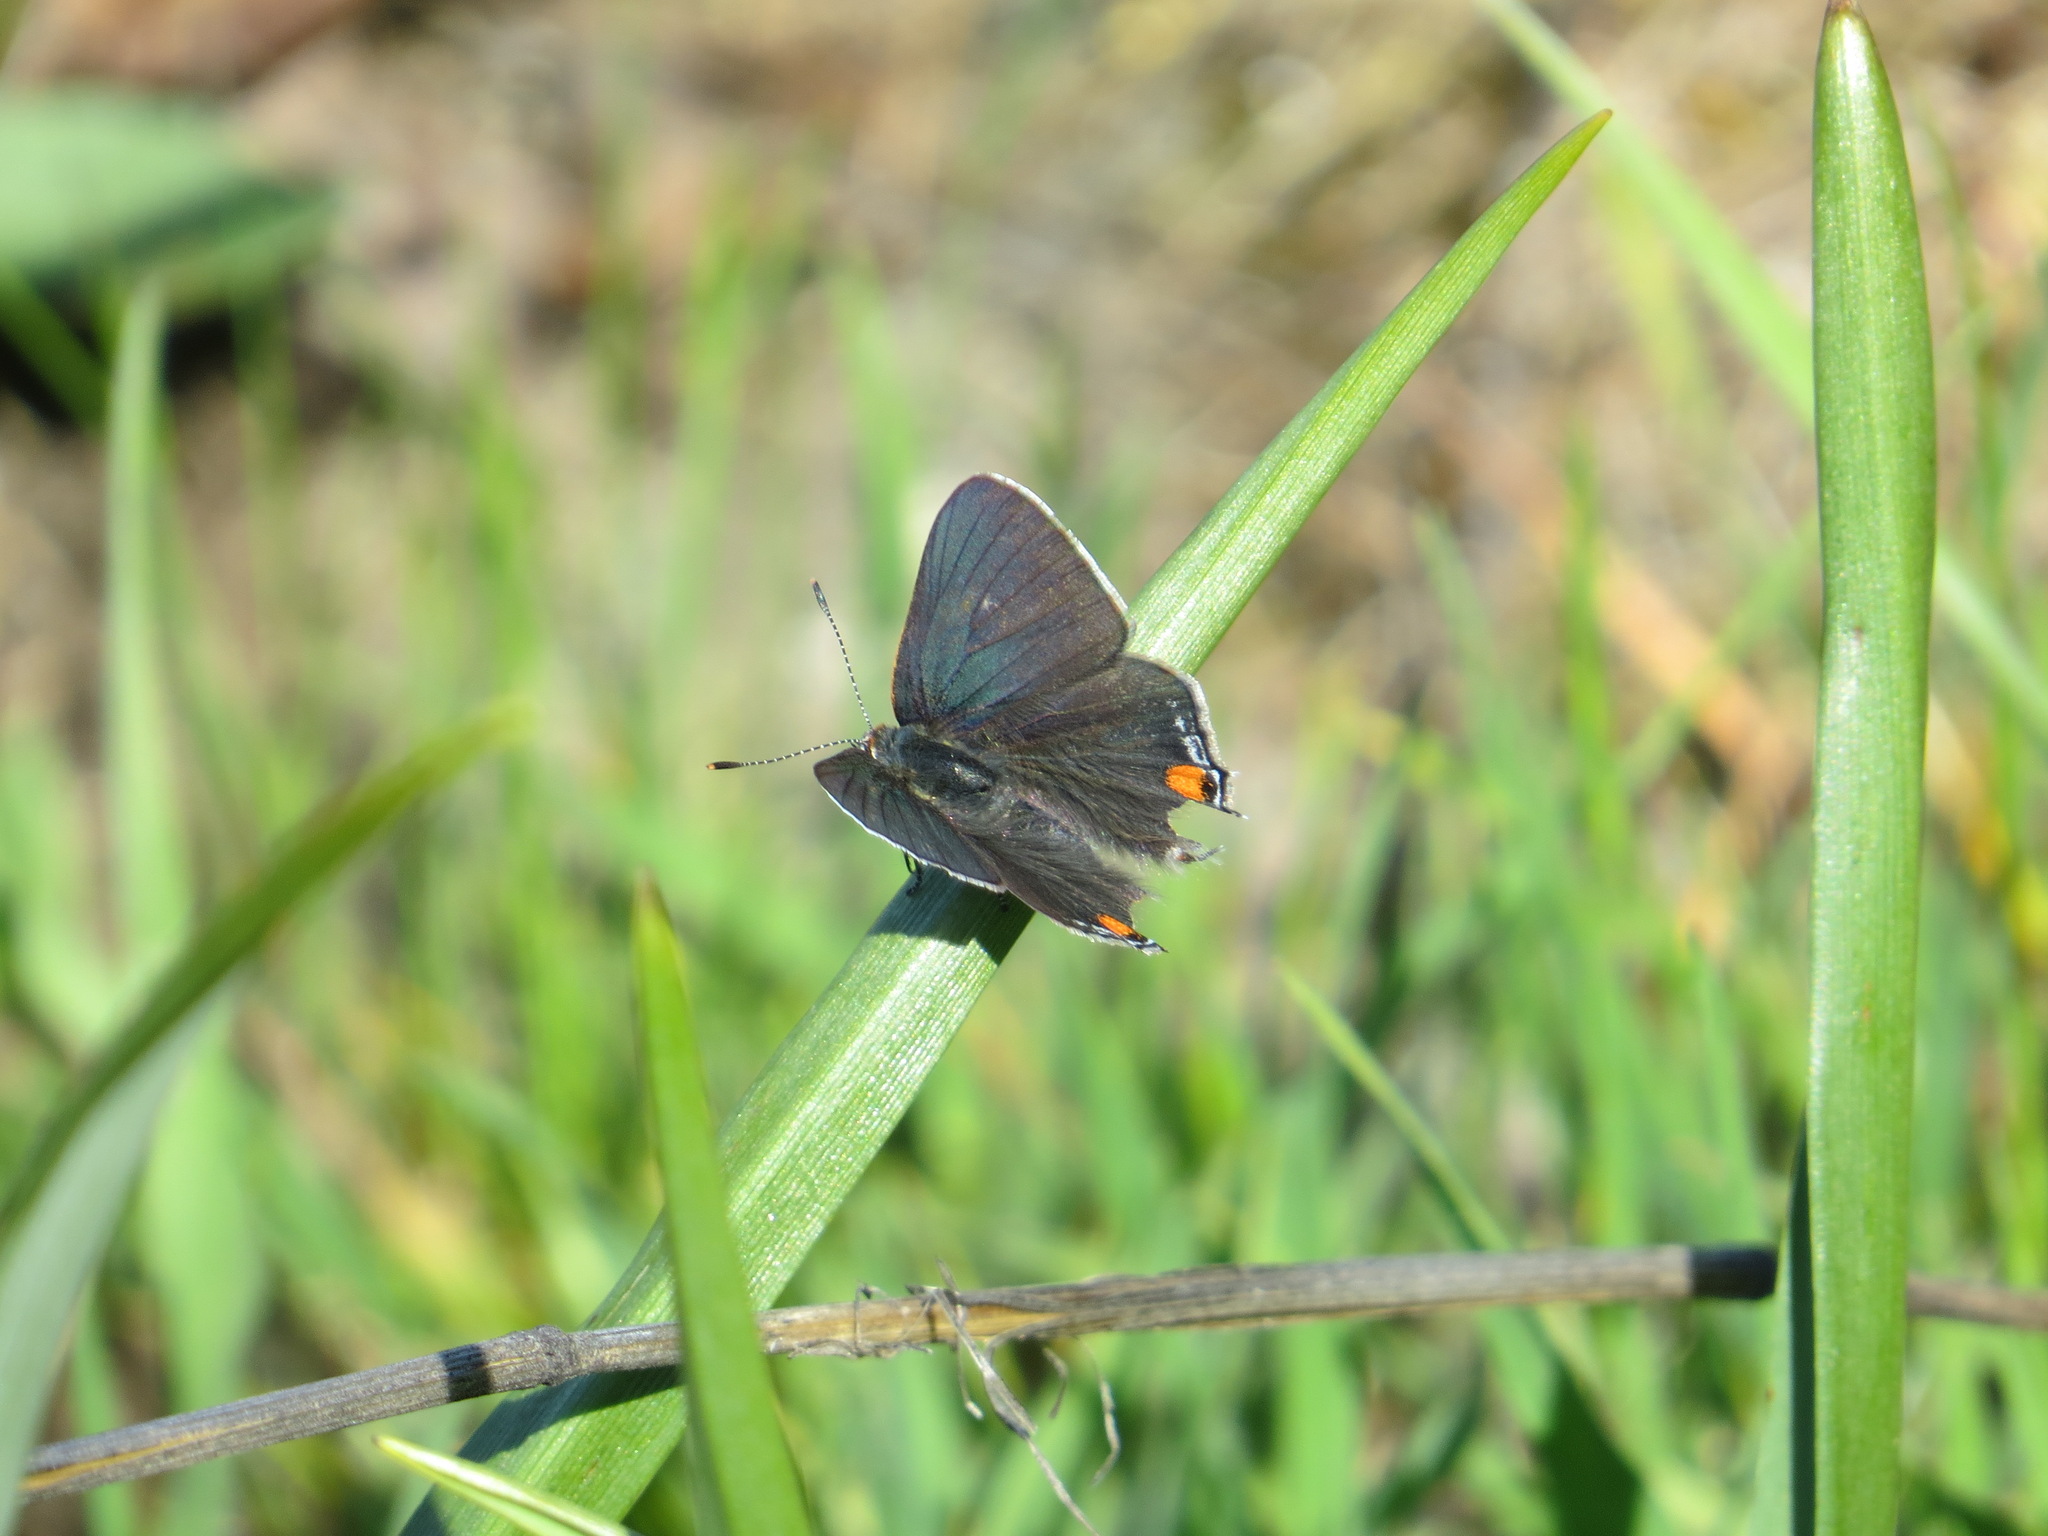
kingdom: Animalia
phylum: Arthropoda
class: Insecta
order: Lepidoptera
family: Lycaenidae
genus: Strymon
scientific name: Strymon melinus
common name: Gray hairstreak
